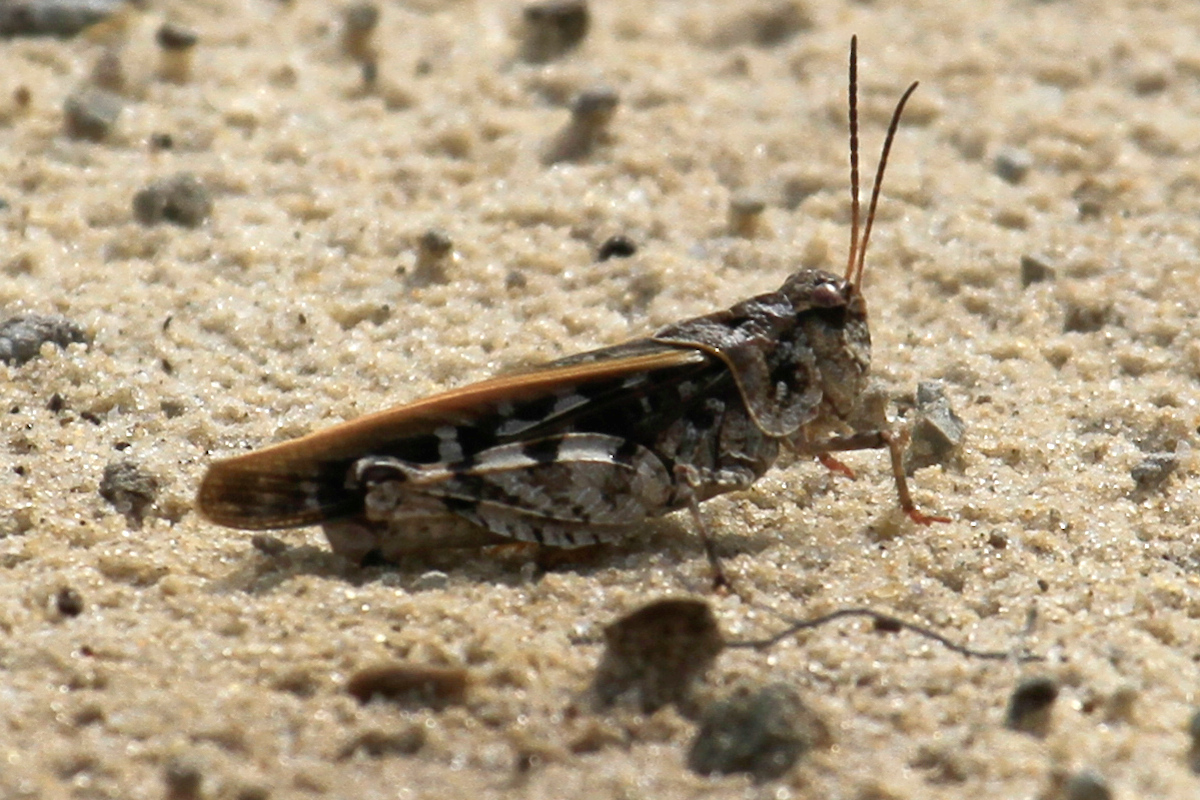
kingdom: Animalia
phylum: Arthropoda
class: Insecta
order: Orthoptera
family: Acrididae
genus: Pardalophora
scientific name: Pardalophora phoenicoptera
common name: Orange-winged grasshopper
